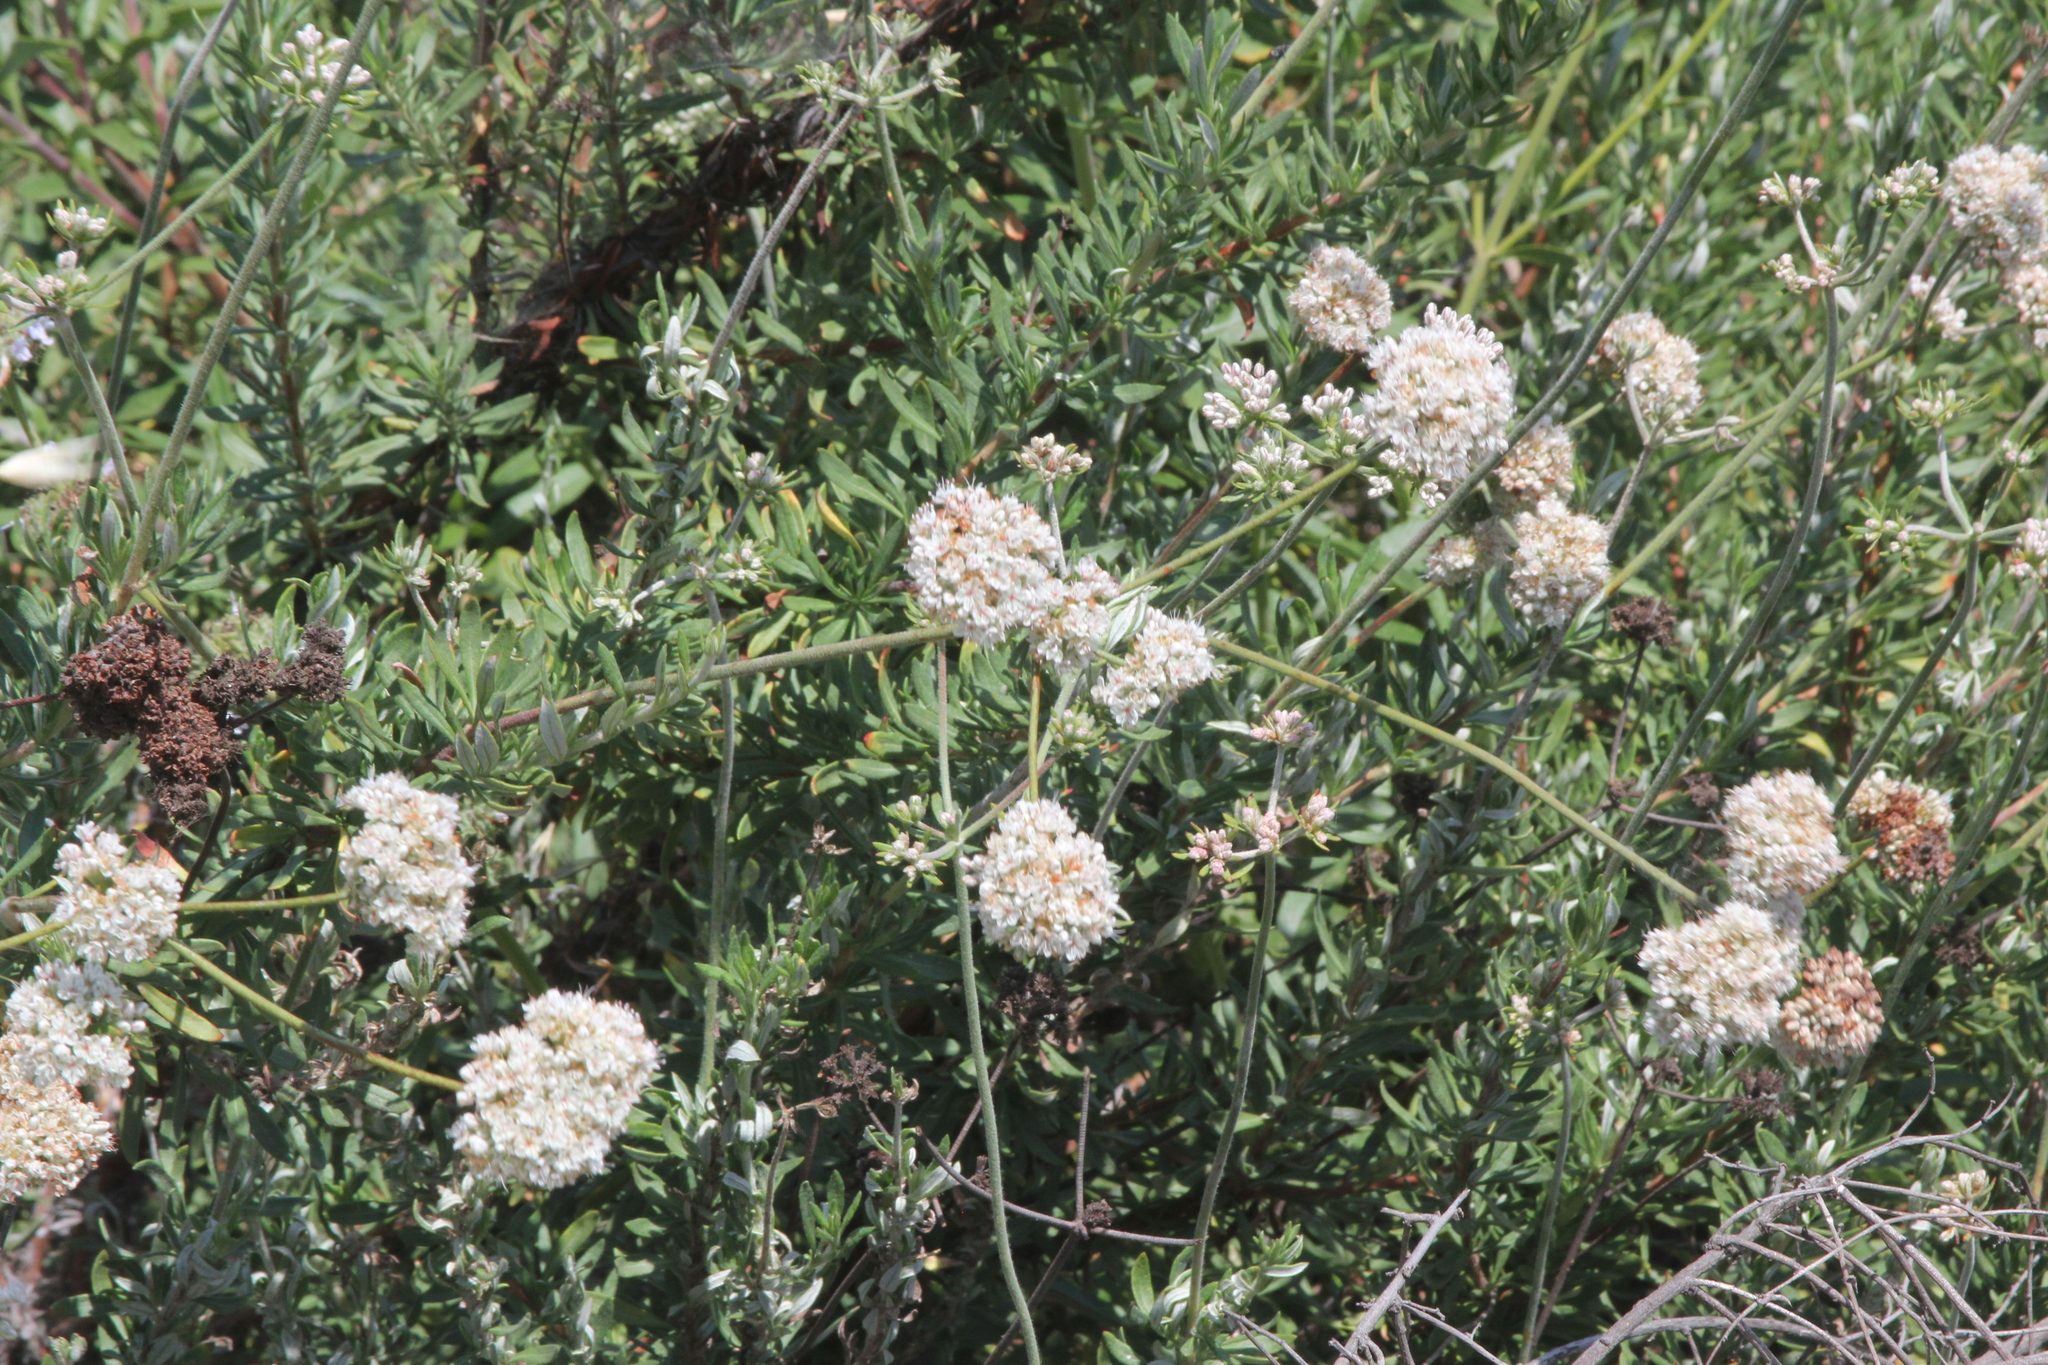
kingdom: Plantae
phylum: Tracheophyta
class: Magnoliopsida
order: Caryophyllales
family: Polygonaceae
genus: Eriogonum
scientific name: Eriogonum fasciculatum
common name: California wild buckwheat
